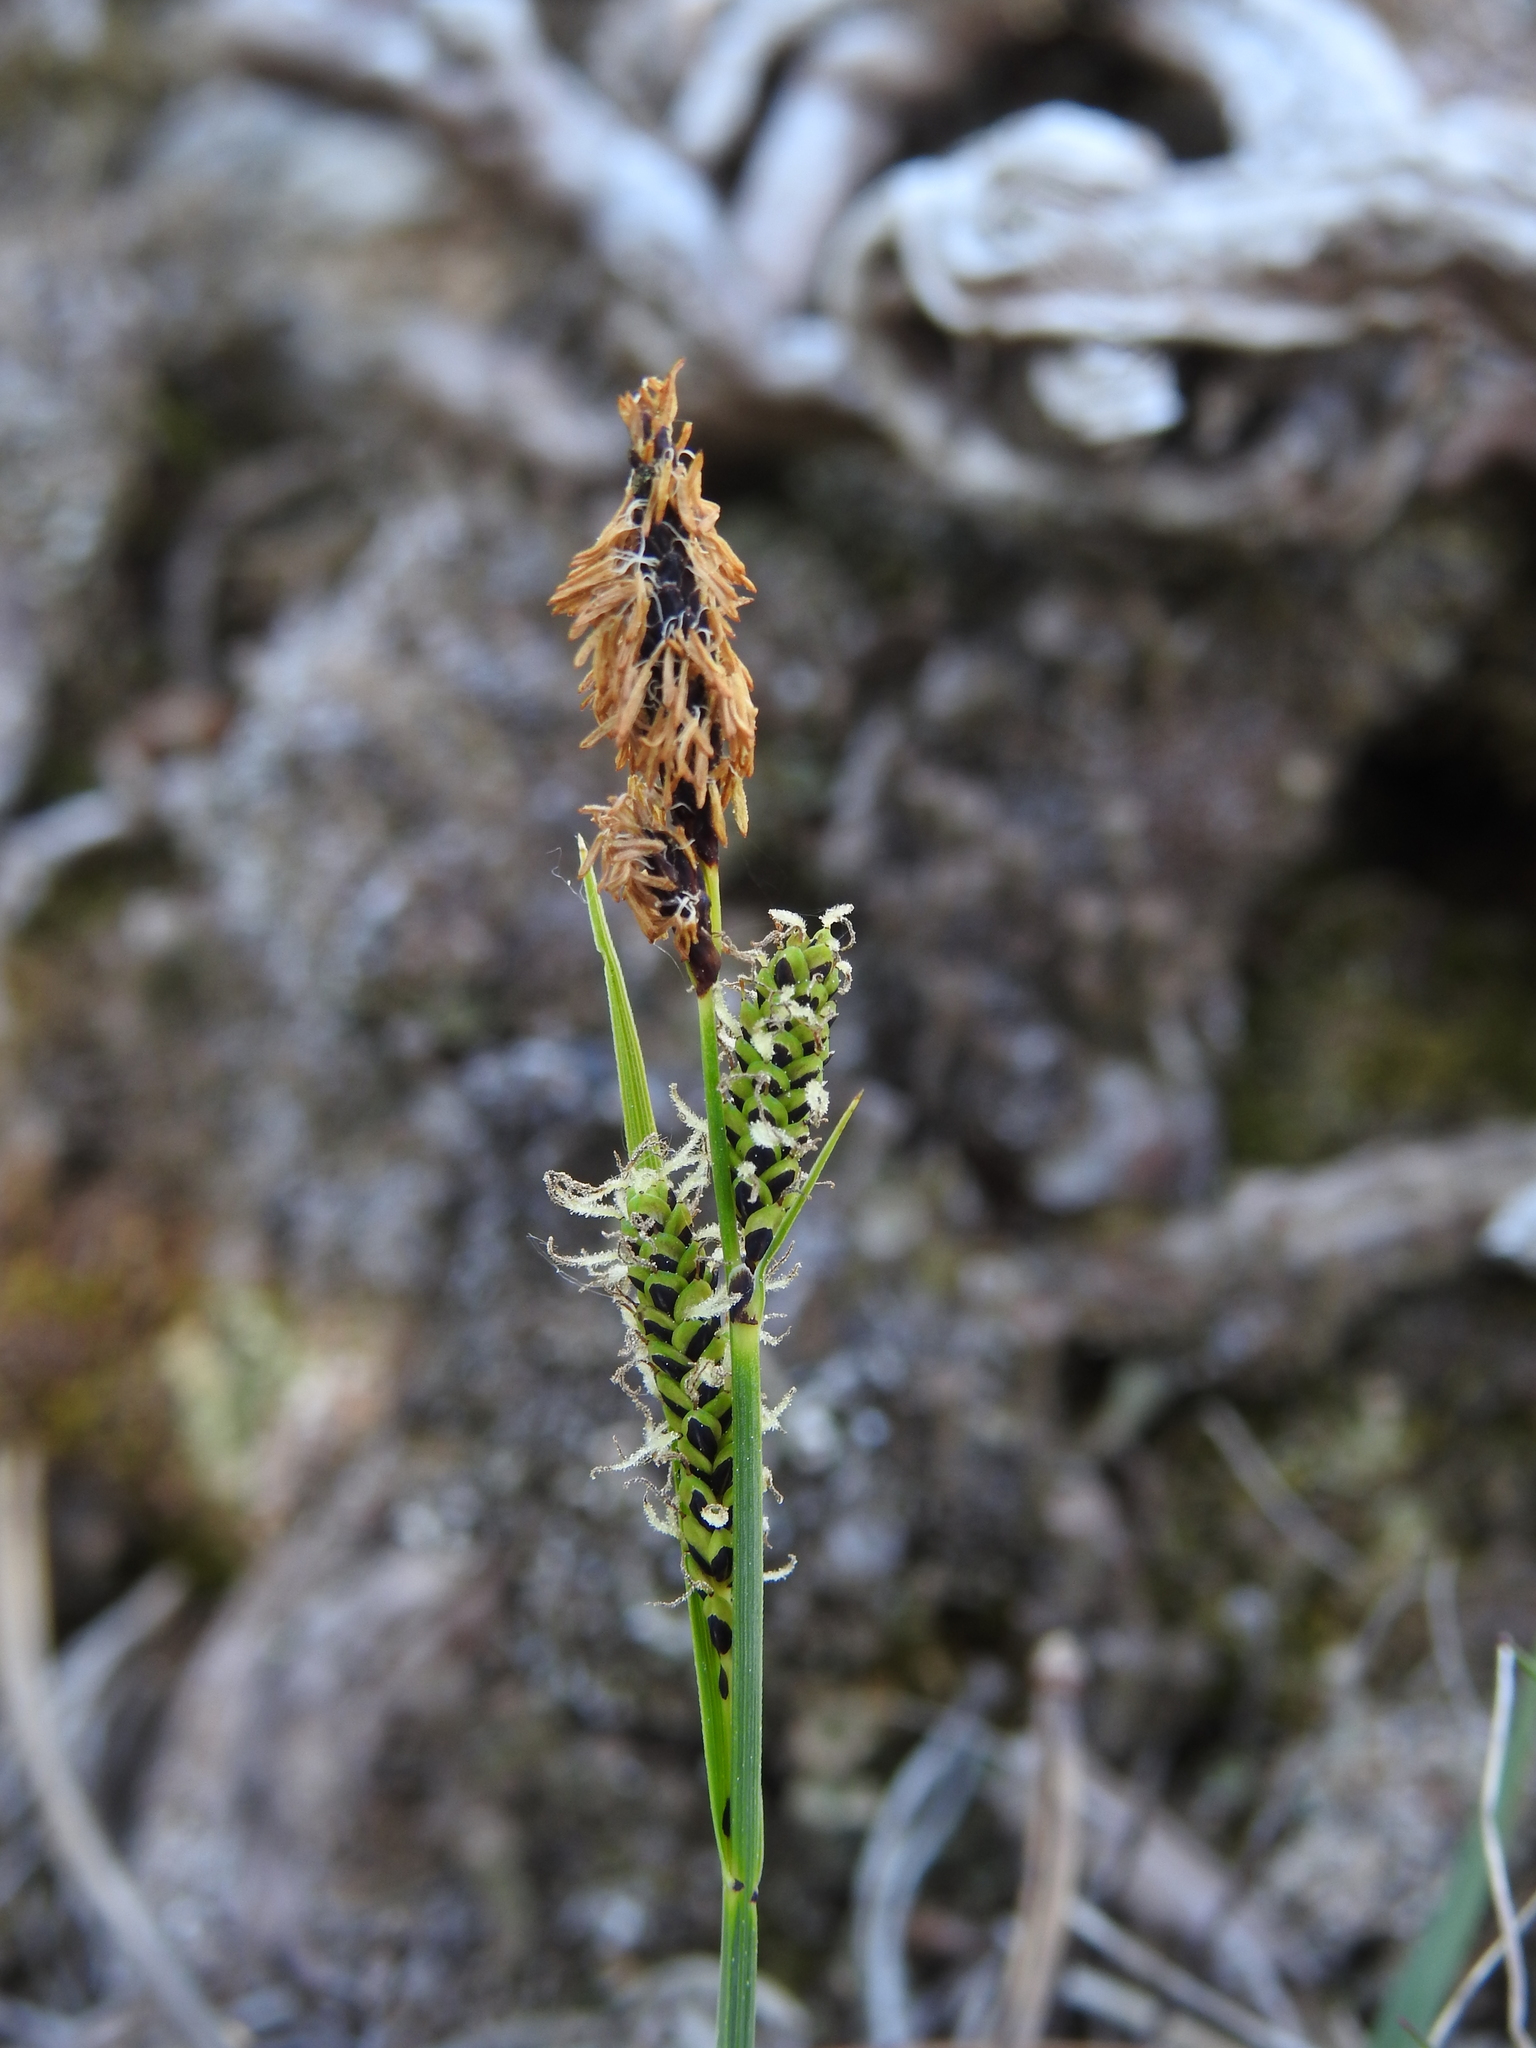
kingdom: Plantae
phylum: Tracheophyta
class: Liliopsida
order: Poales
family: Cyperaceae
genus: Carex
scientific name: Carex nigra
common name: Common sedge
